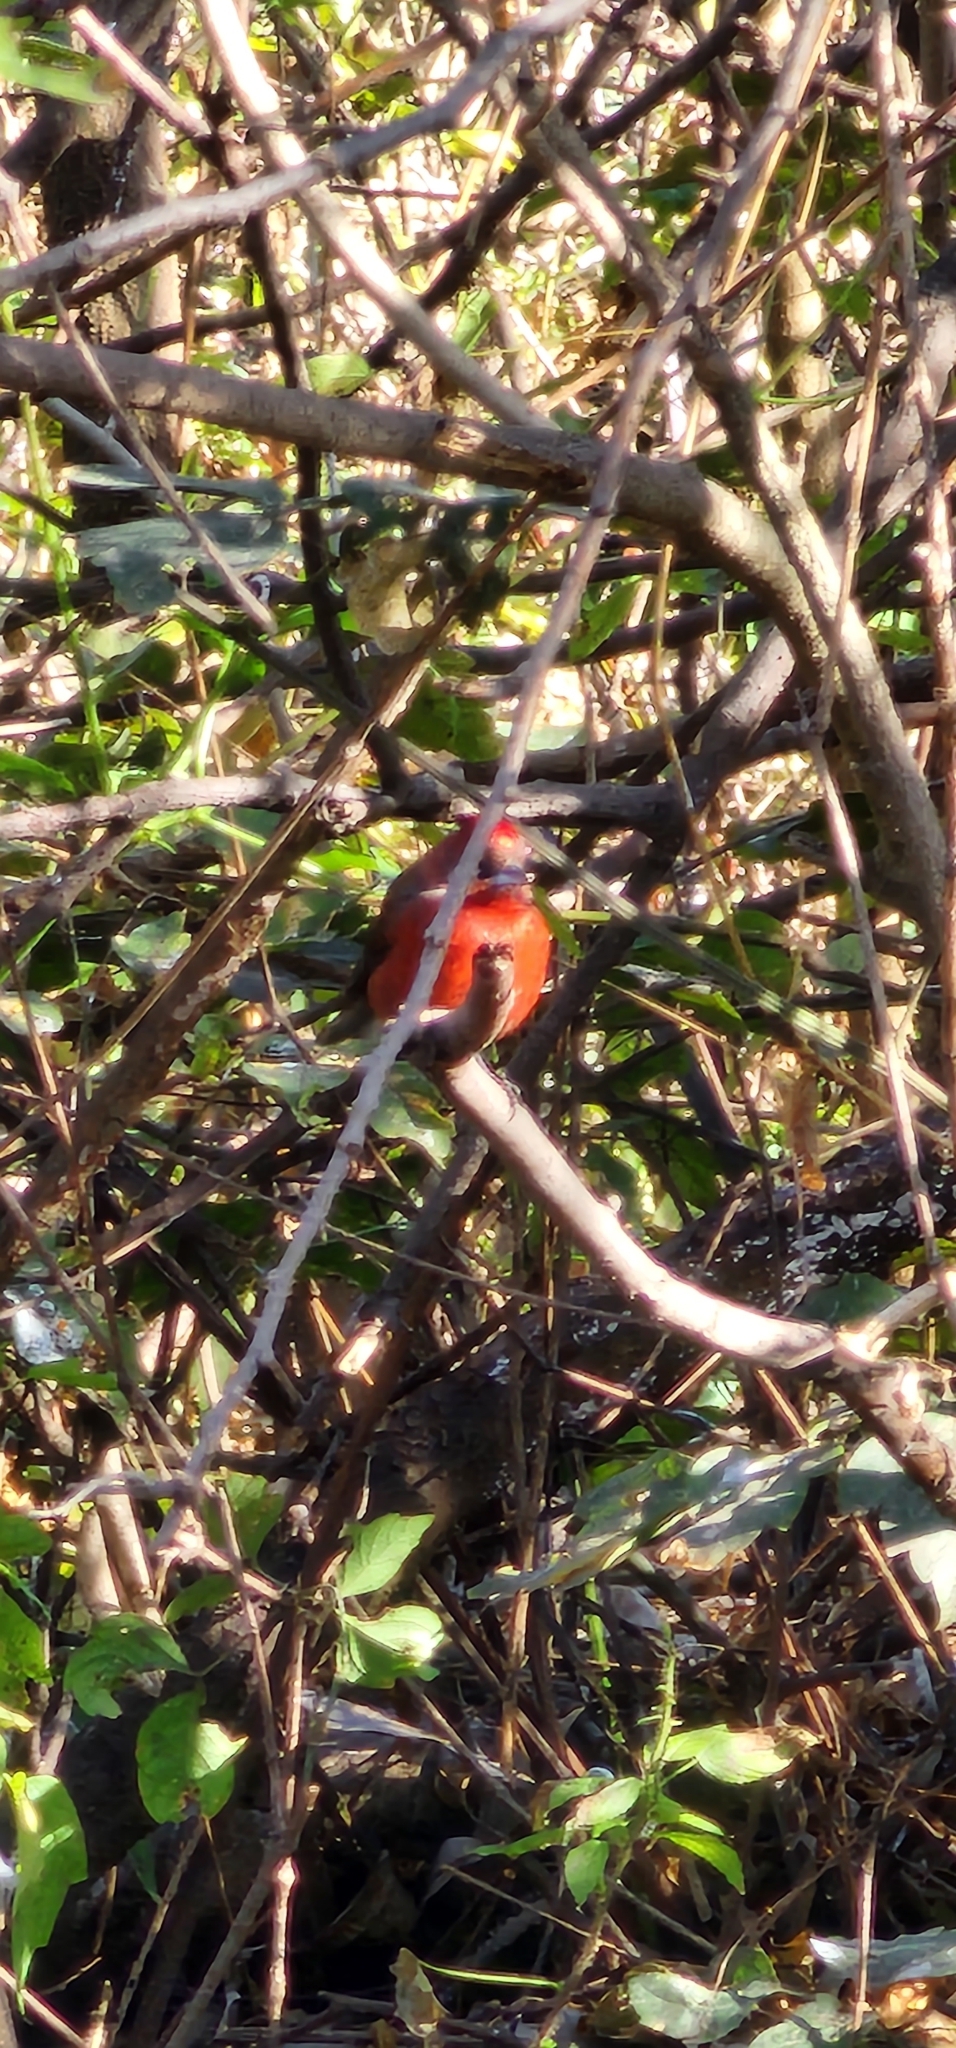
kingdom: Animalia
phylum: Chordata
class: Aves
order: Passeriformes
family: Thraupidae
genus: Coryphospingus
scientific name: Coryphospingus cucullatus
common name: Red pileated finch
